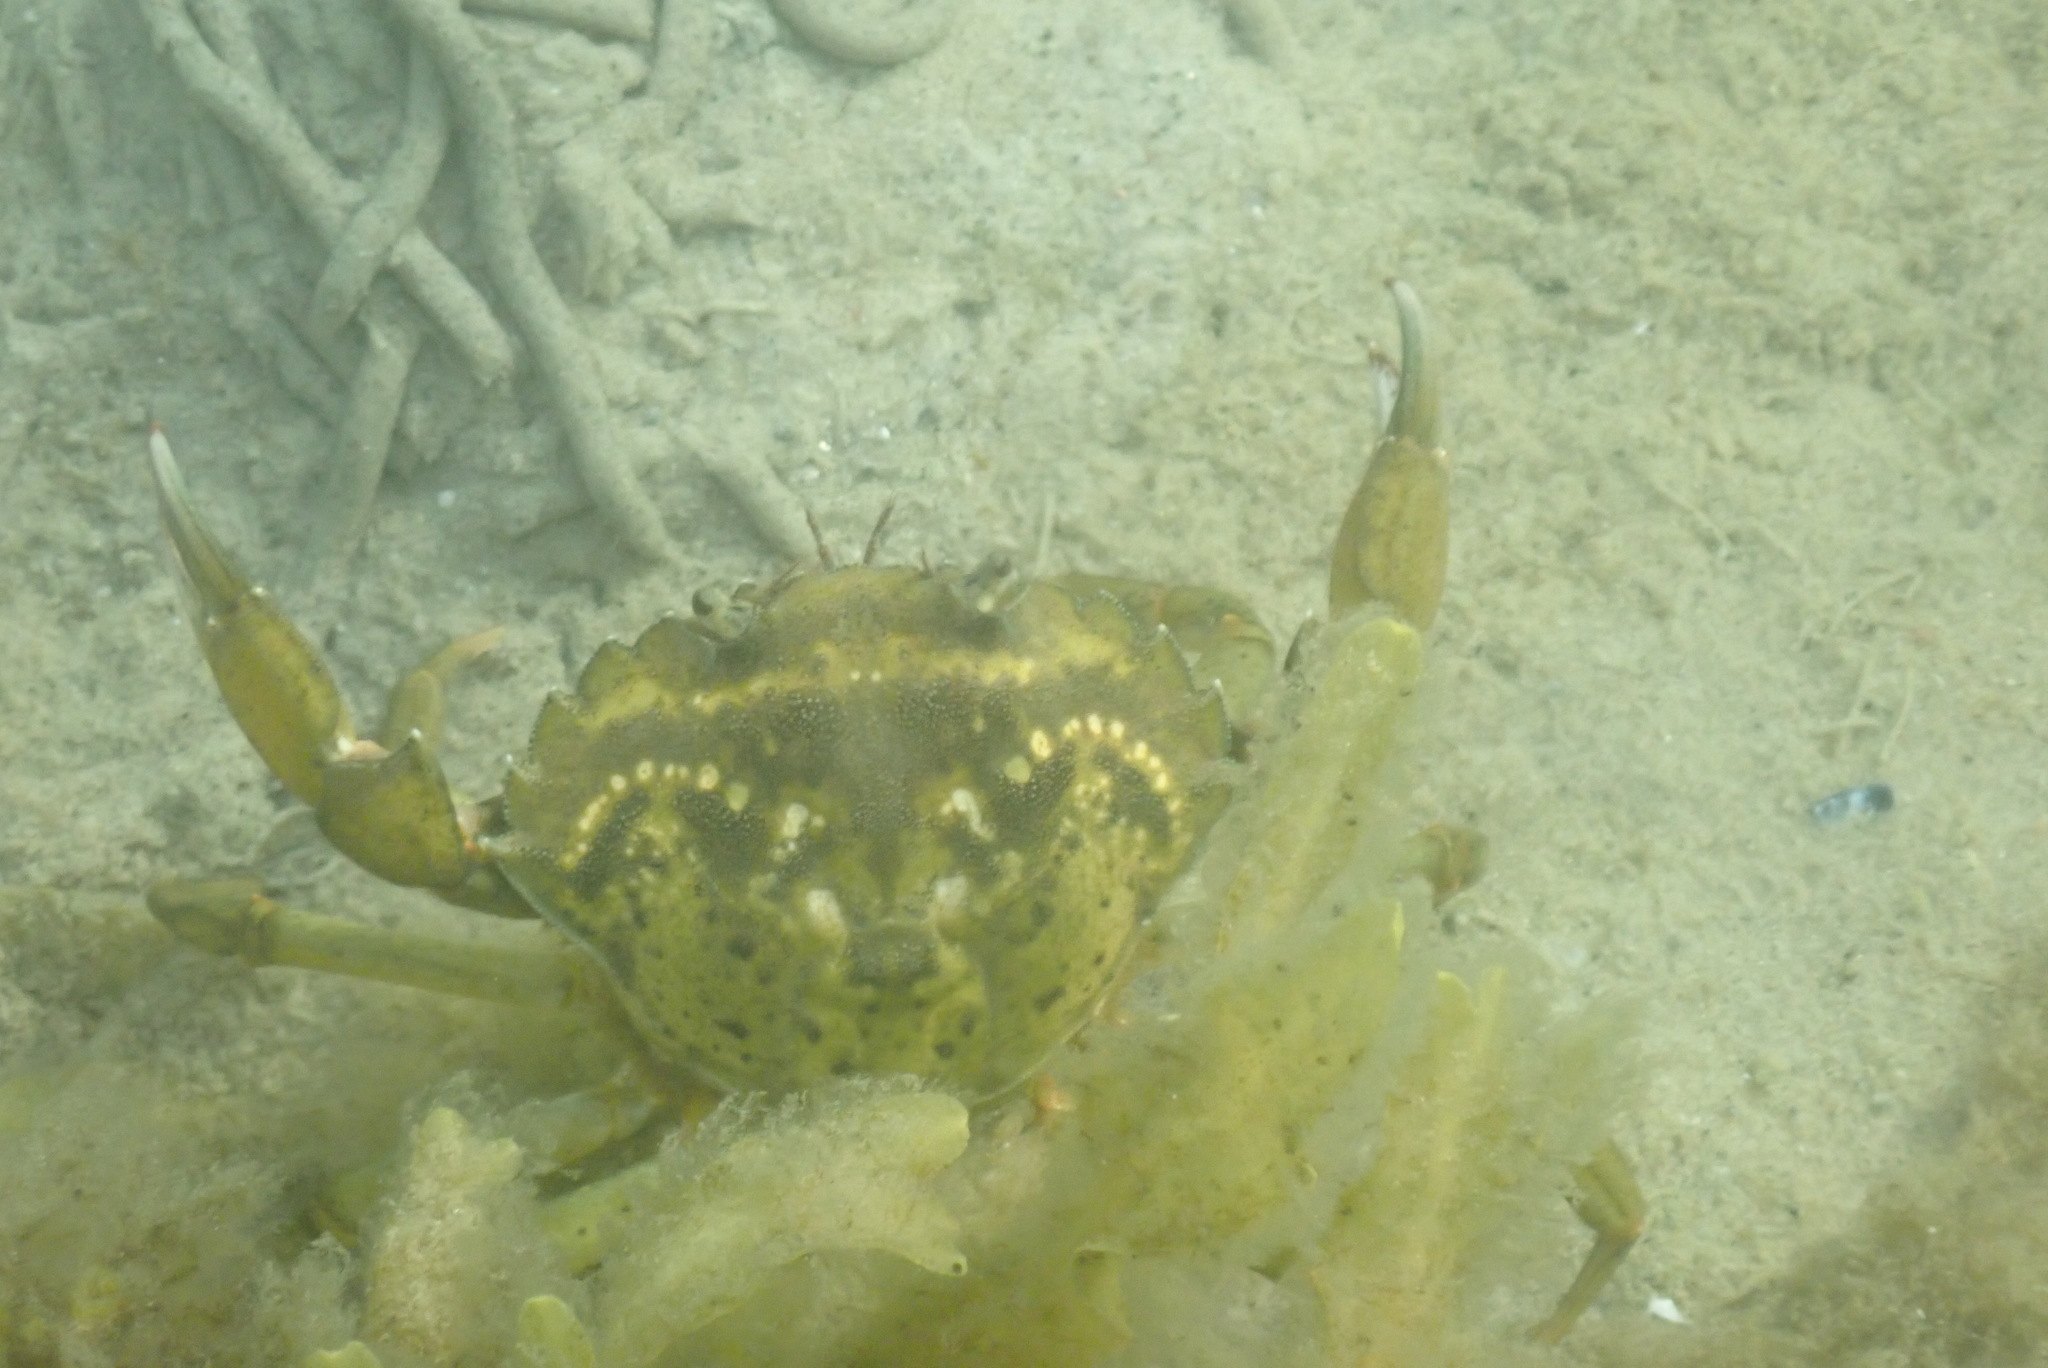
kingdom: Animalia
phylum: Arthropoda
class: Malacostraca
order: Decapoda
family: Carcinidae
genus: Carcinus
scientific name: Carcinus maenas
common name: European green crab
